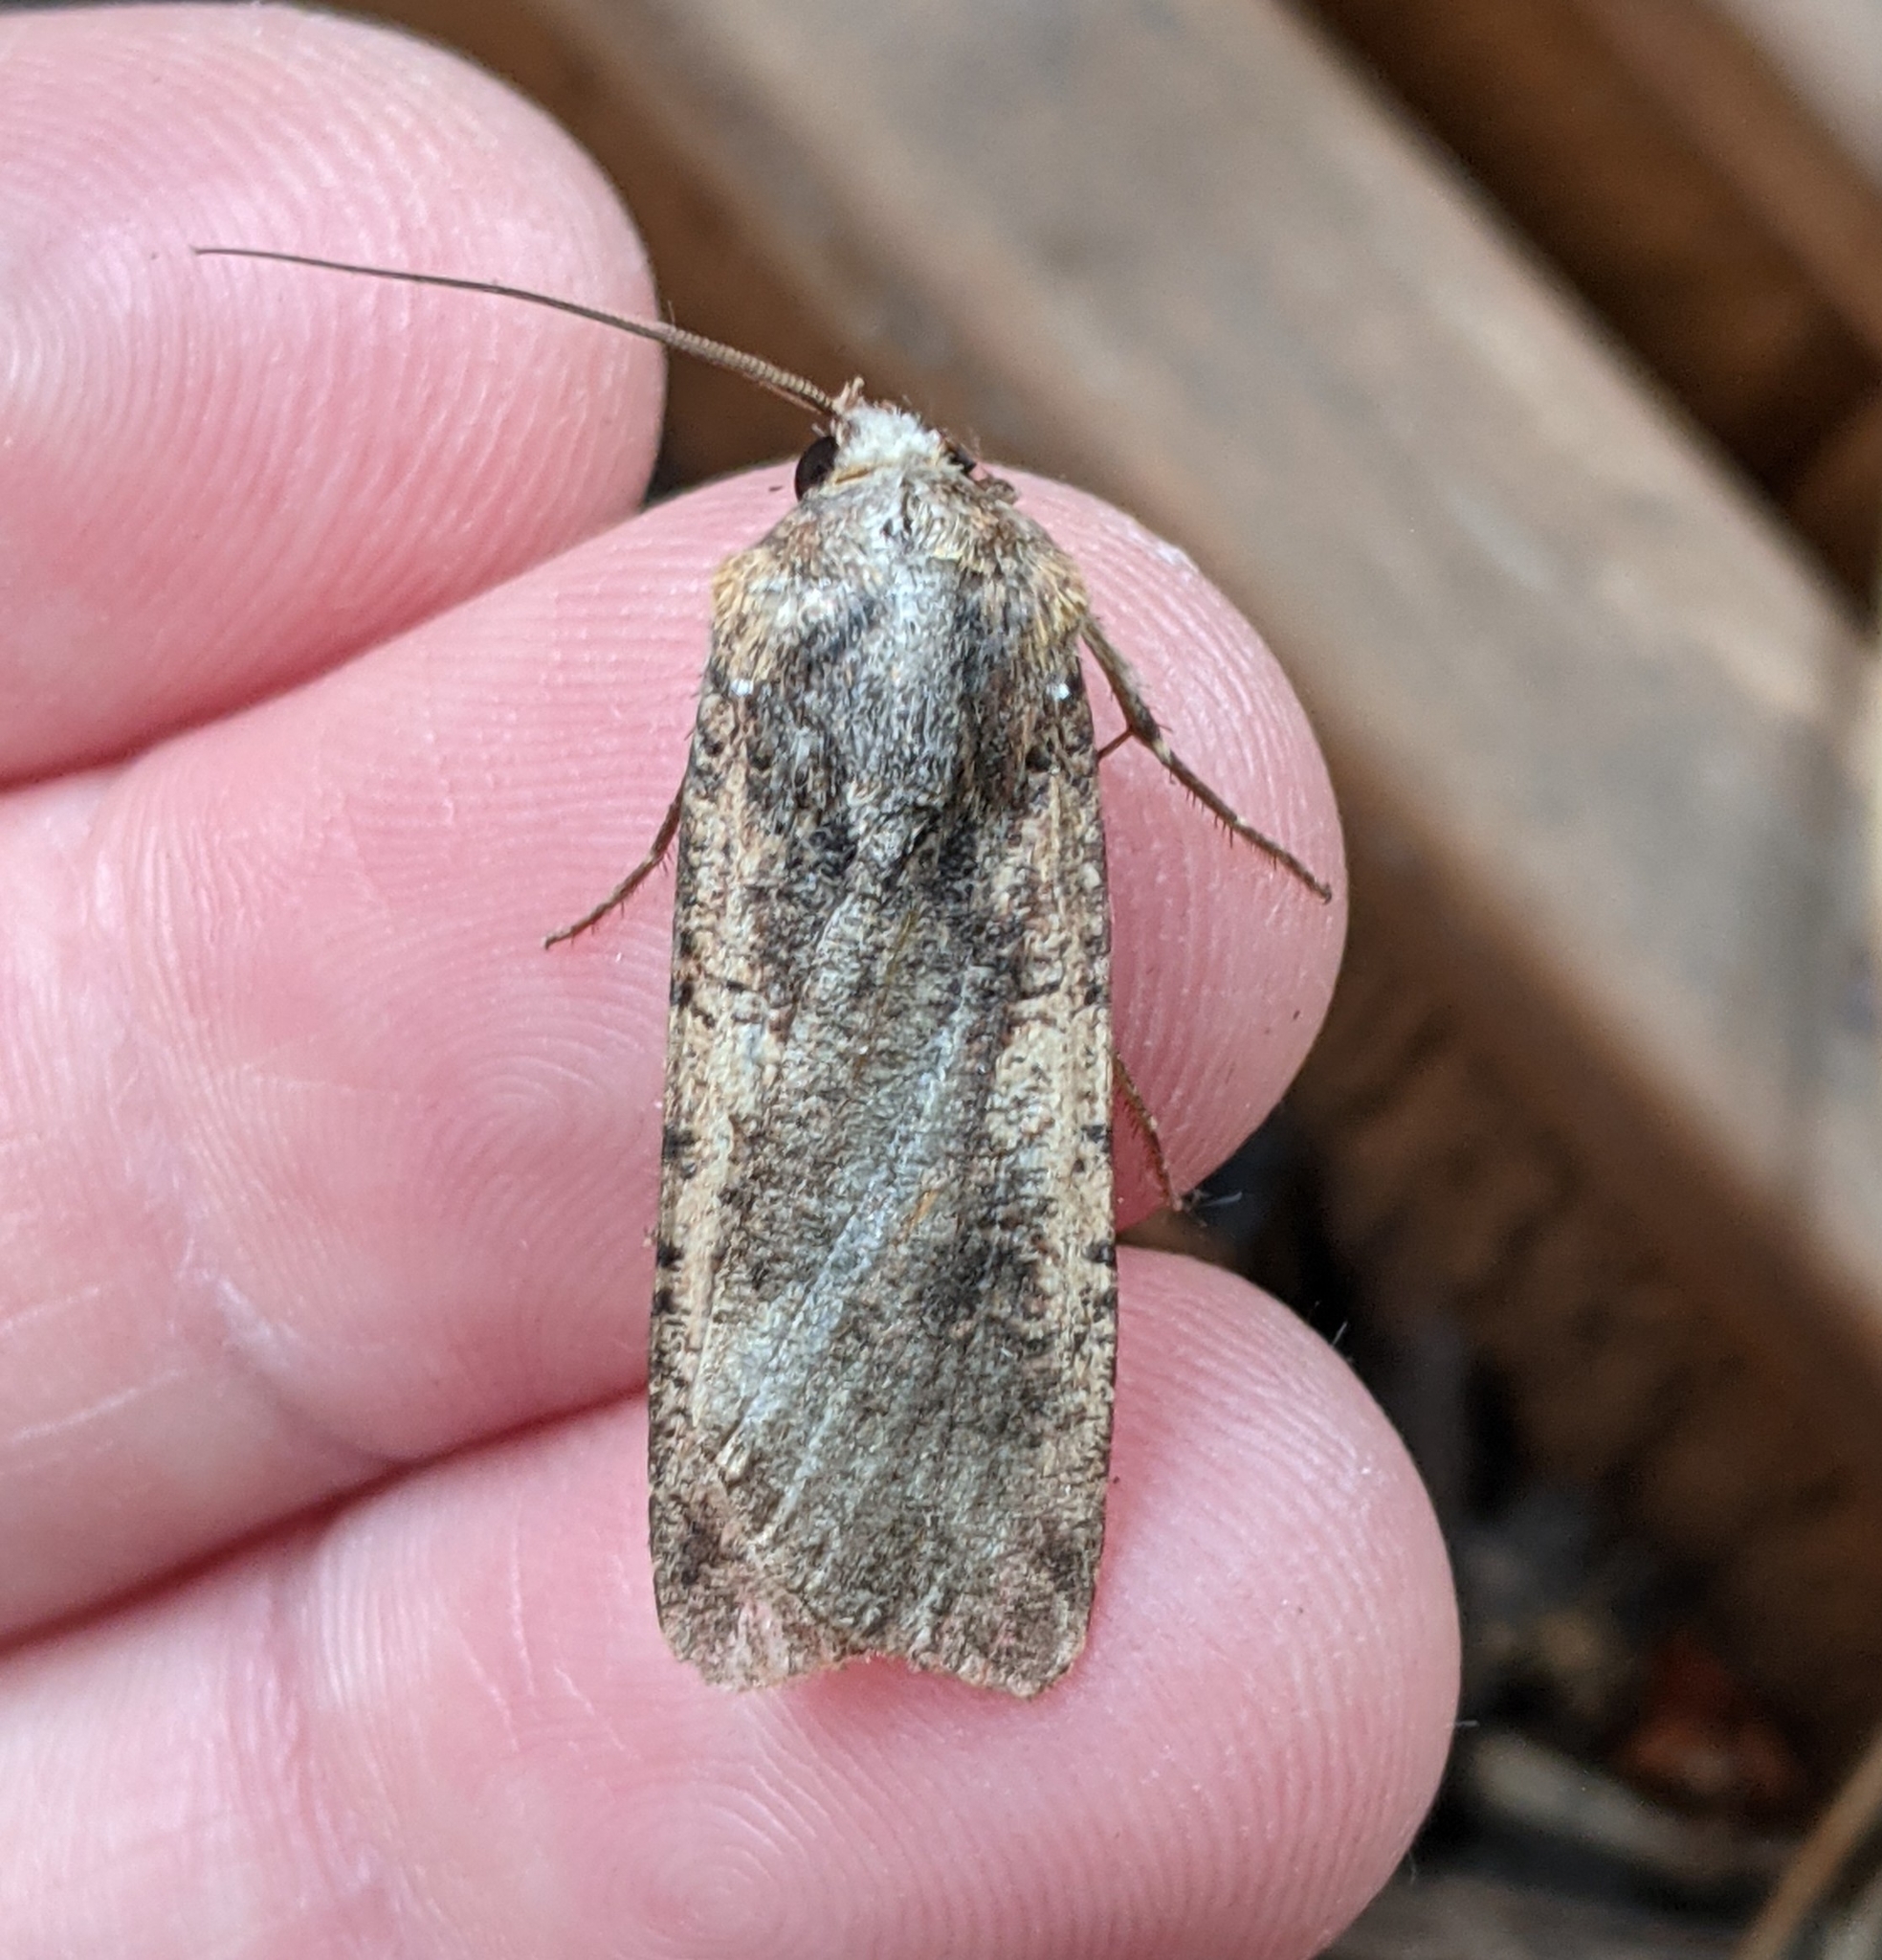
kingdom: Animalia
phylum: Arthropoda
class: Insecta
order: Lepidoptera
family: Noctuidae
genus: Noctua
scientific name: Noctua pronuba
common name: Large yellow underwing
